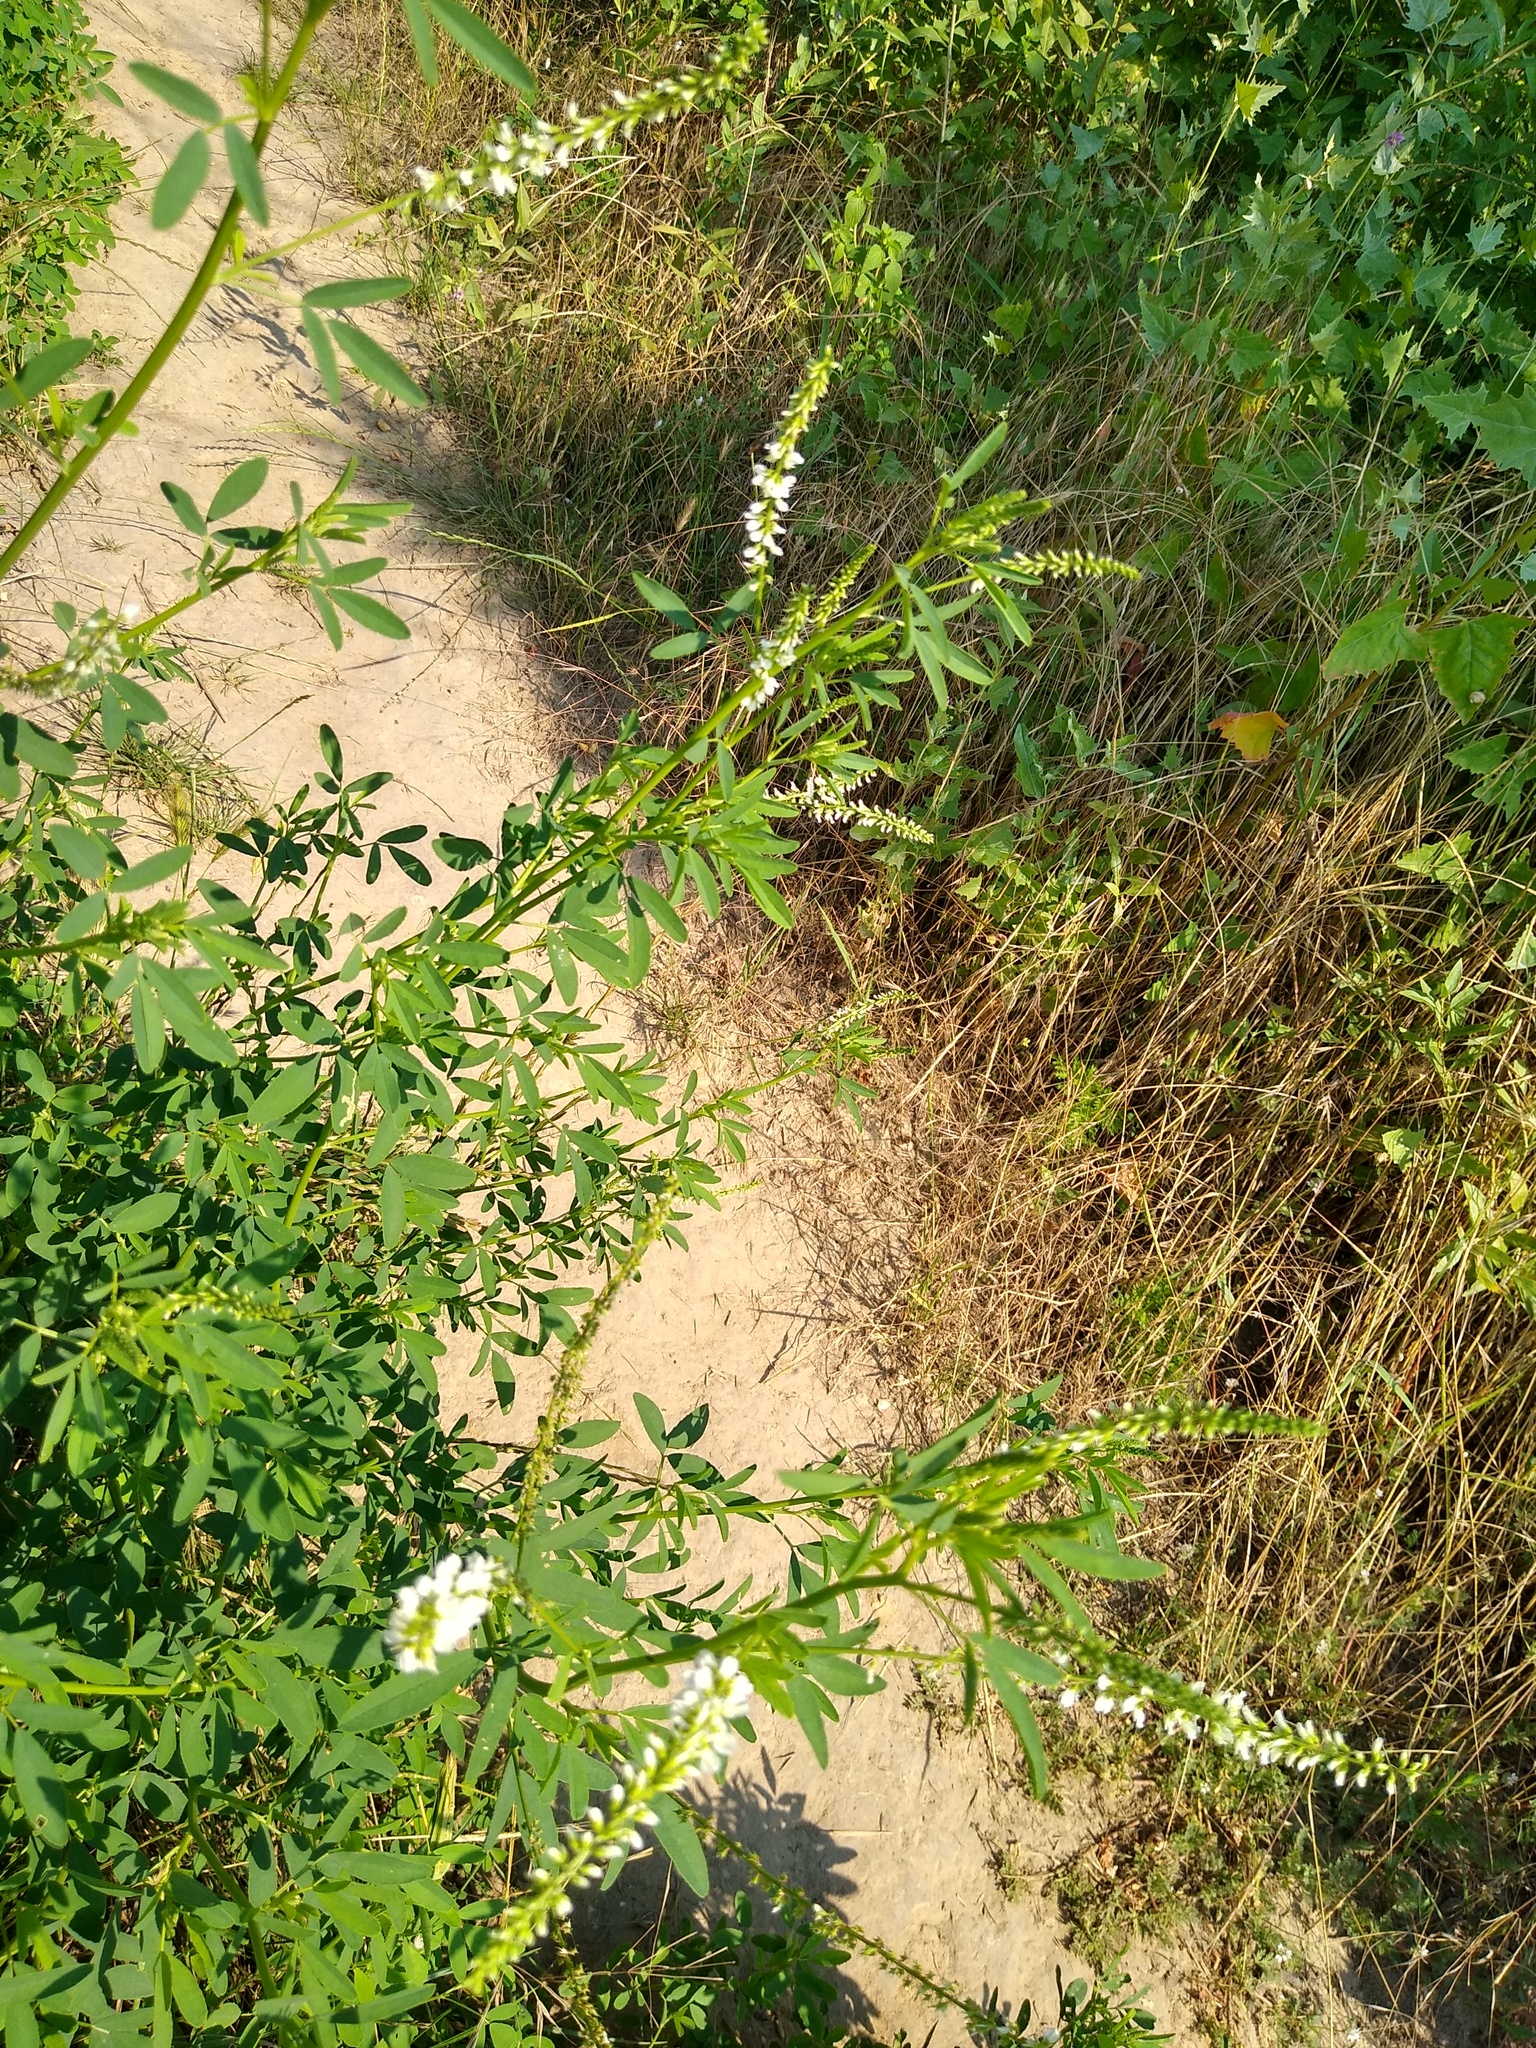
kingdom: Plantae
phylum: Tracheophyta
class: Magnoliopsida
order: Fabales
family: Fabaceae
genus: Melilotus
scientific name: Melilotus albus
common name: White melilot
